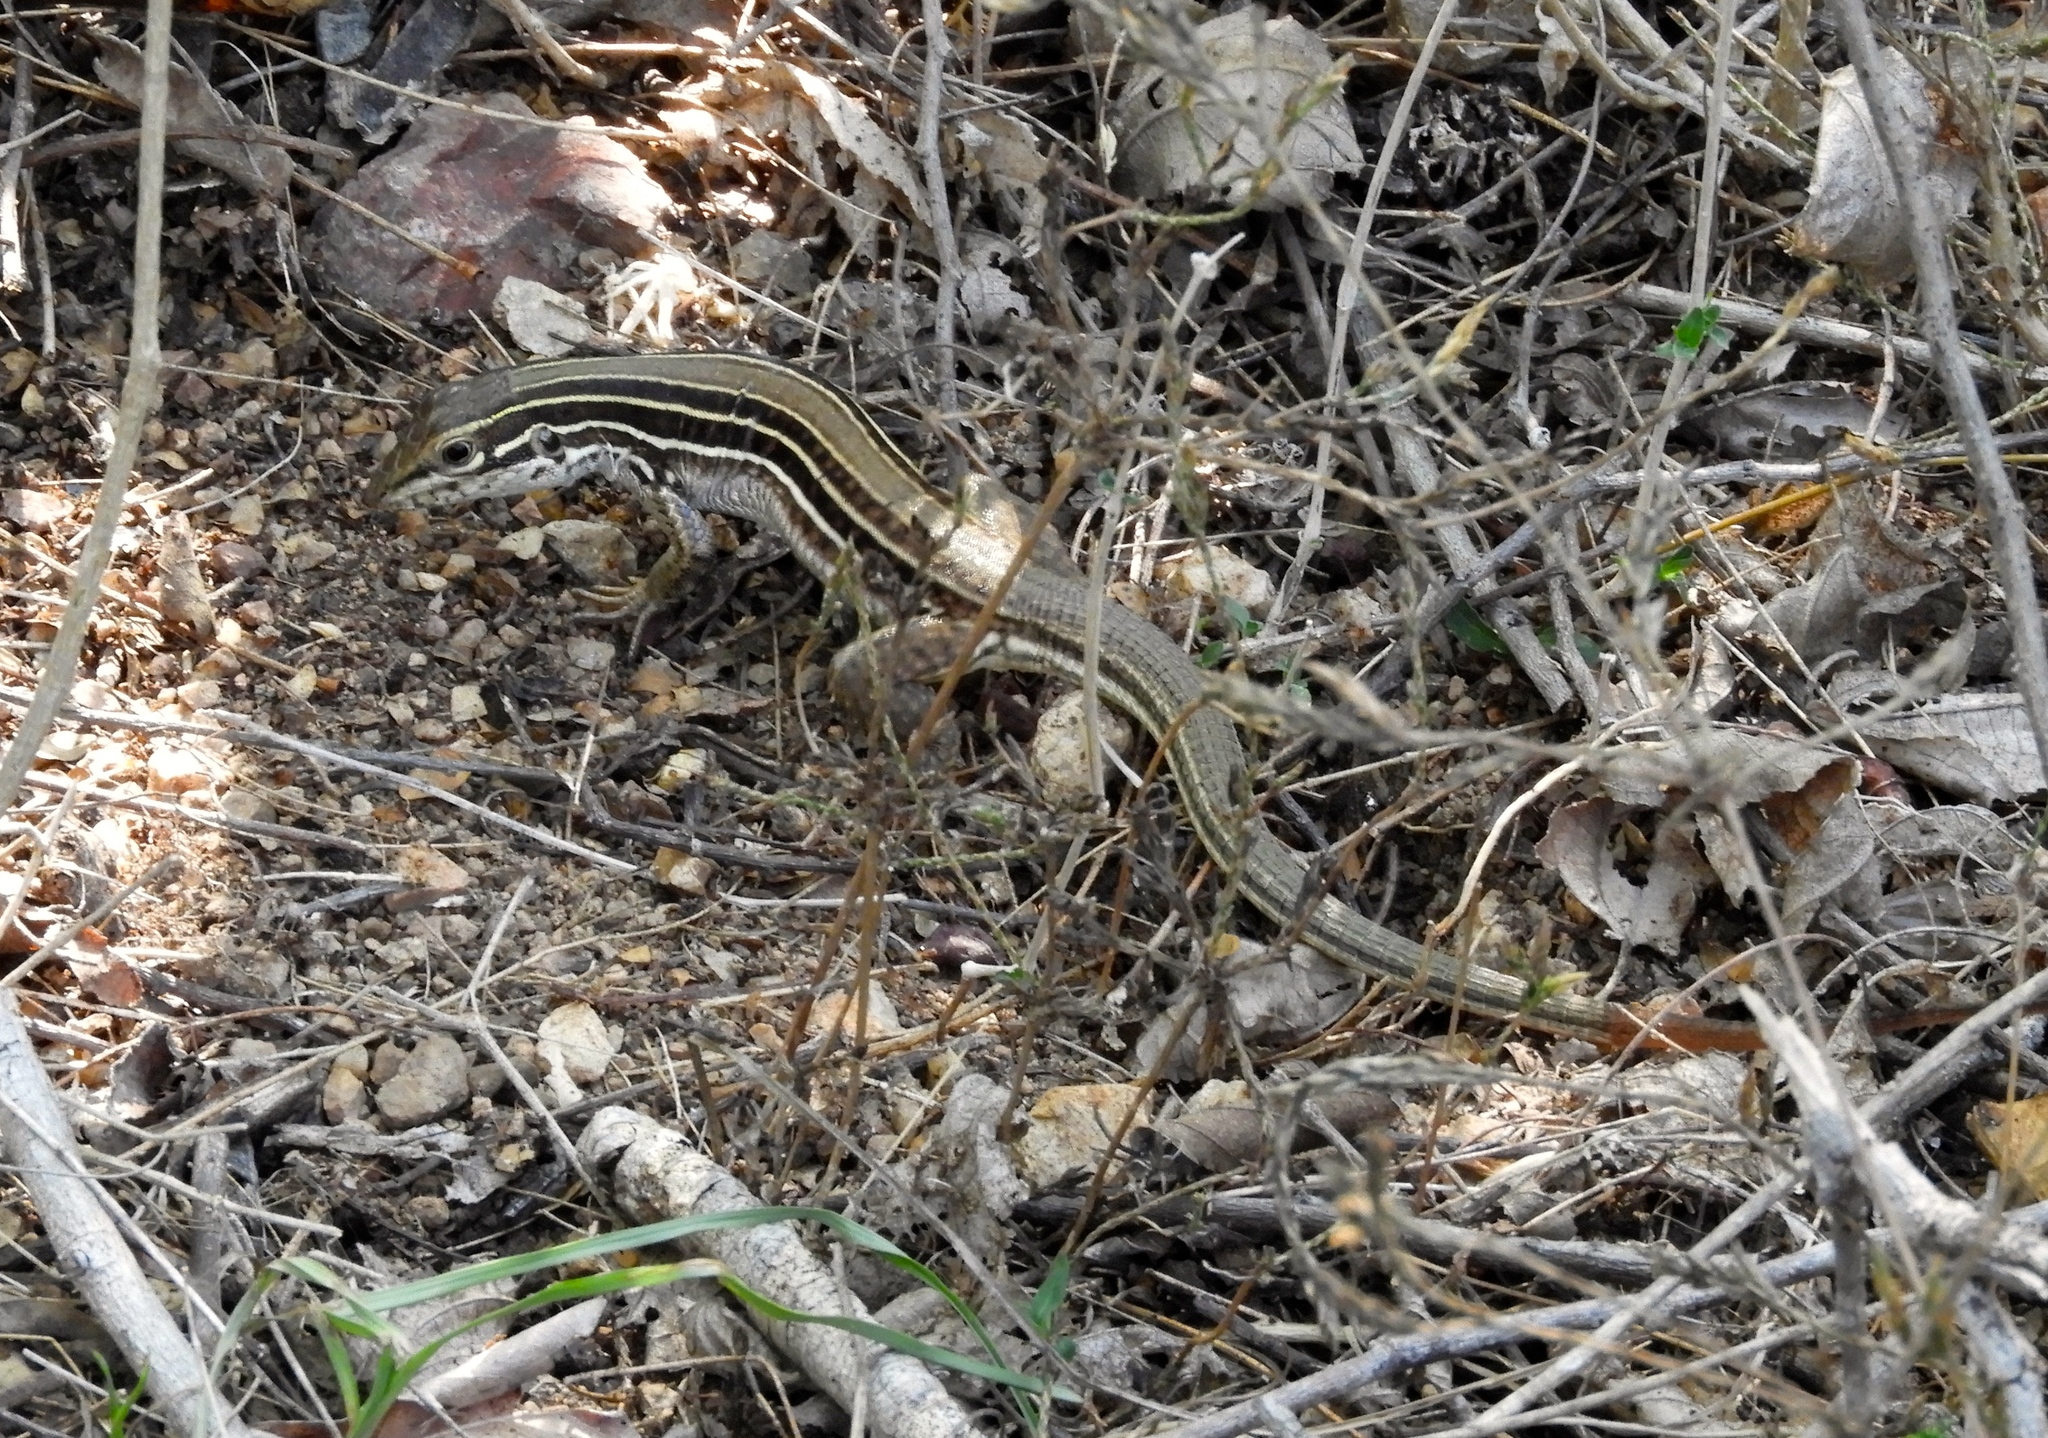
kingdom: Animalia
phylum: Chordata
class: Squamata
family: Teiidae
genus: Aspidoscelis
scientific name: Aspidoscelis costatus
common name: Western mexico whiptail
